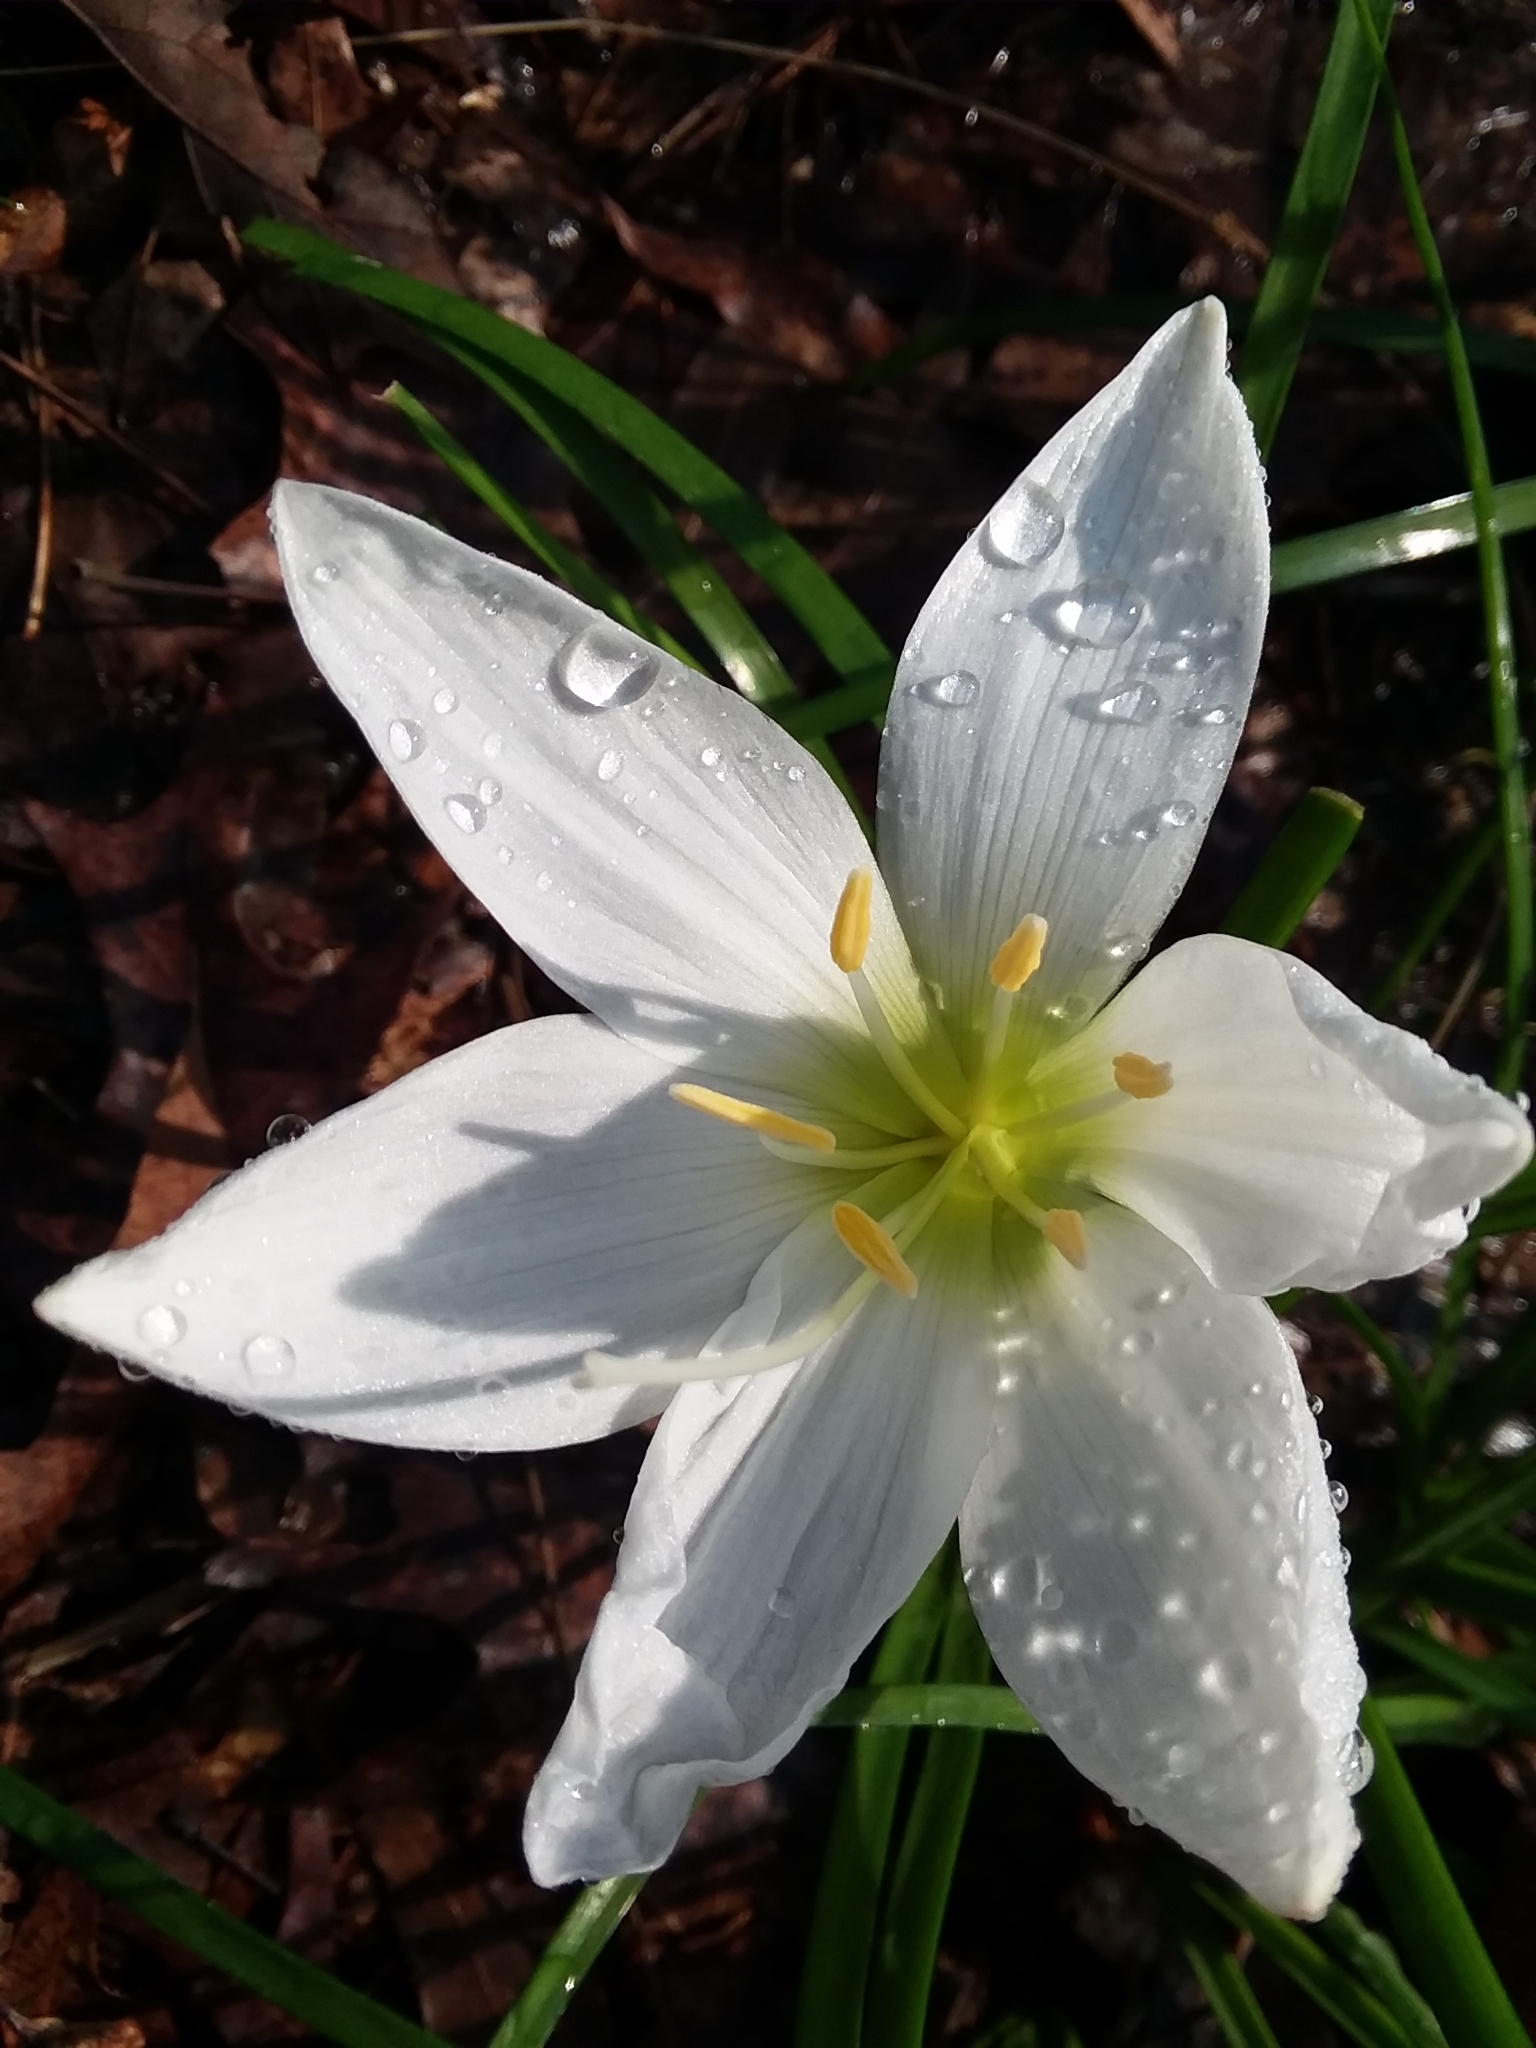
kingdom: Plantae
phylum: Tracheophyta
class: Liliopsida
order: Asparagales
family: Amaryllidaceae
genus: Zephyranthes
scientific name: Zephyranthes atamasco
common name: Atamasco lily
